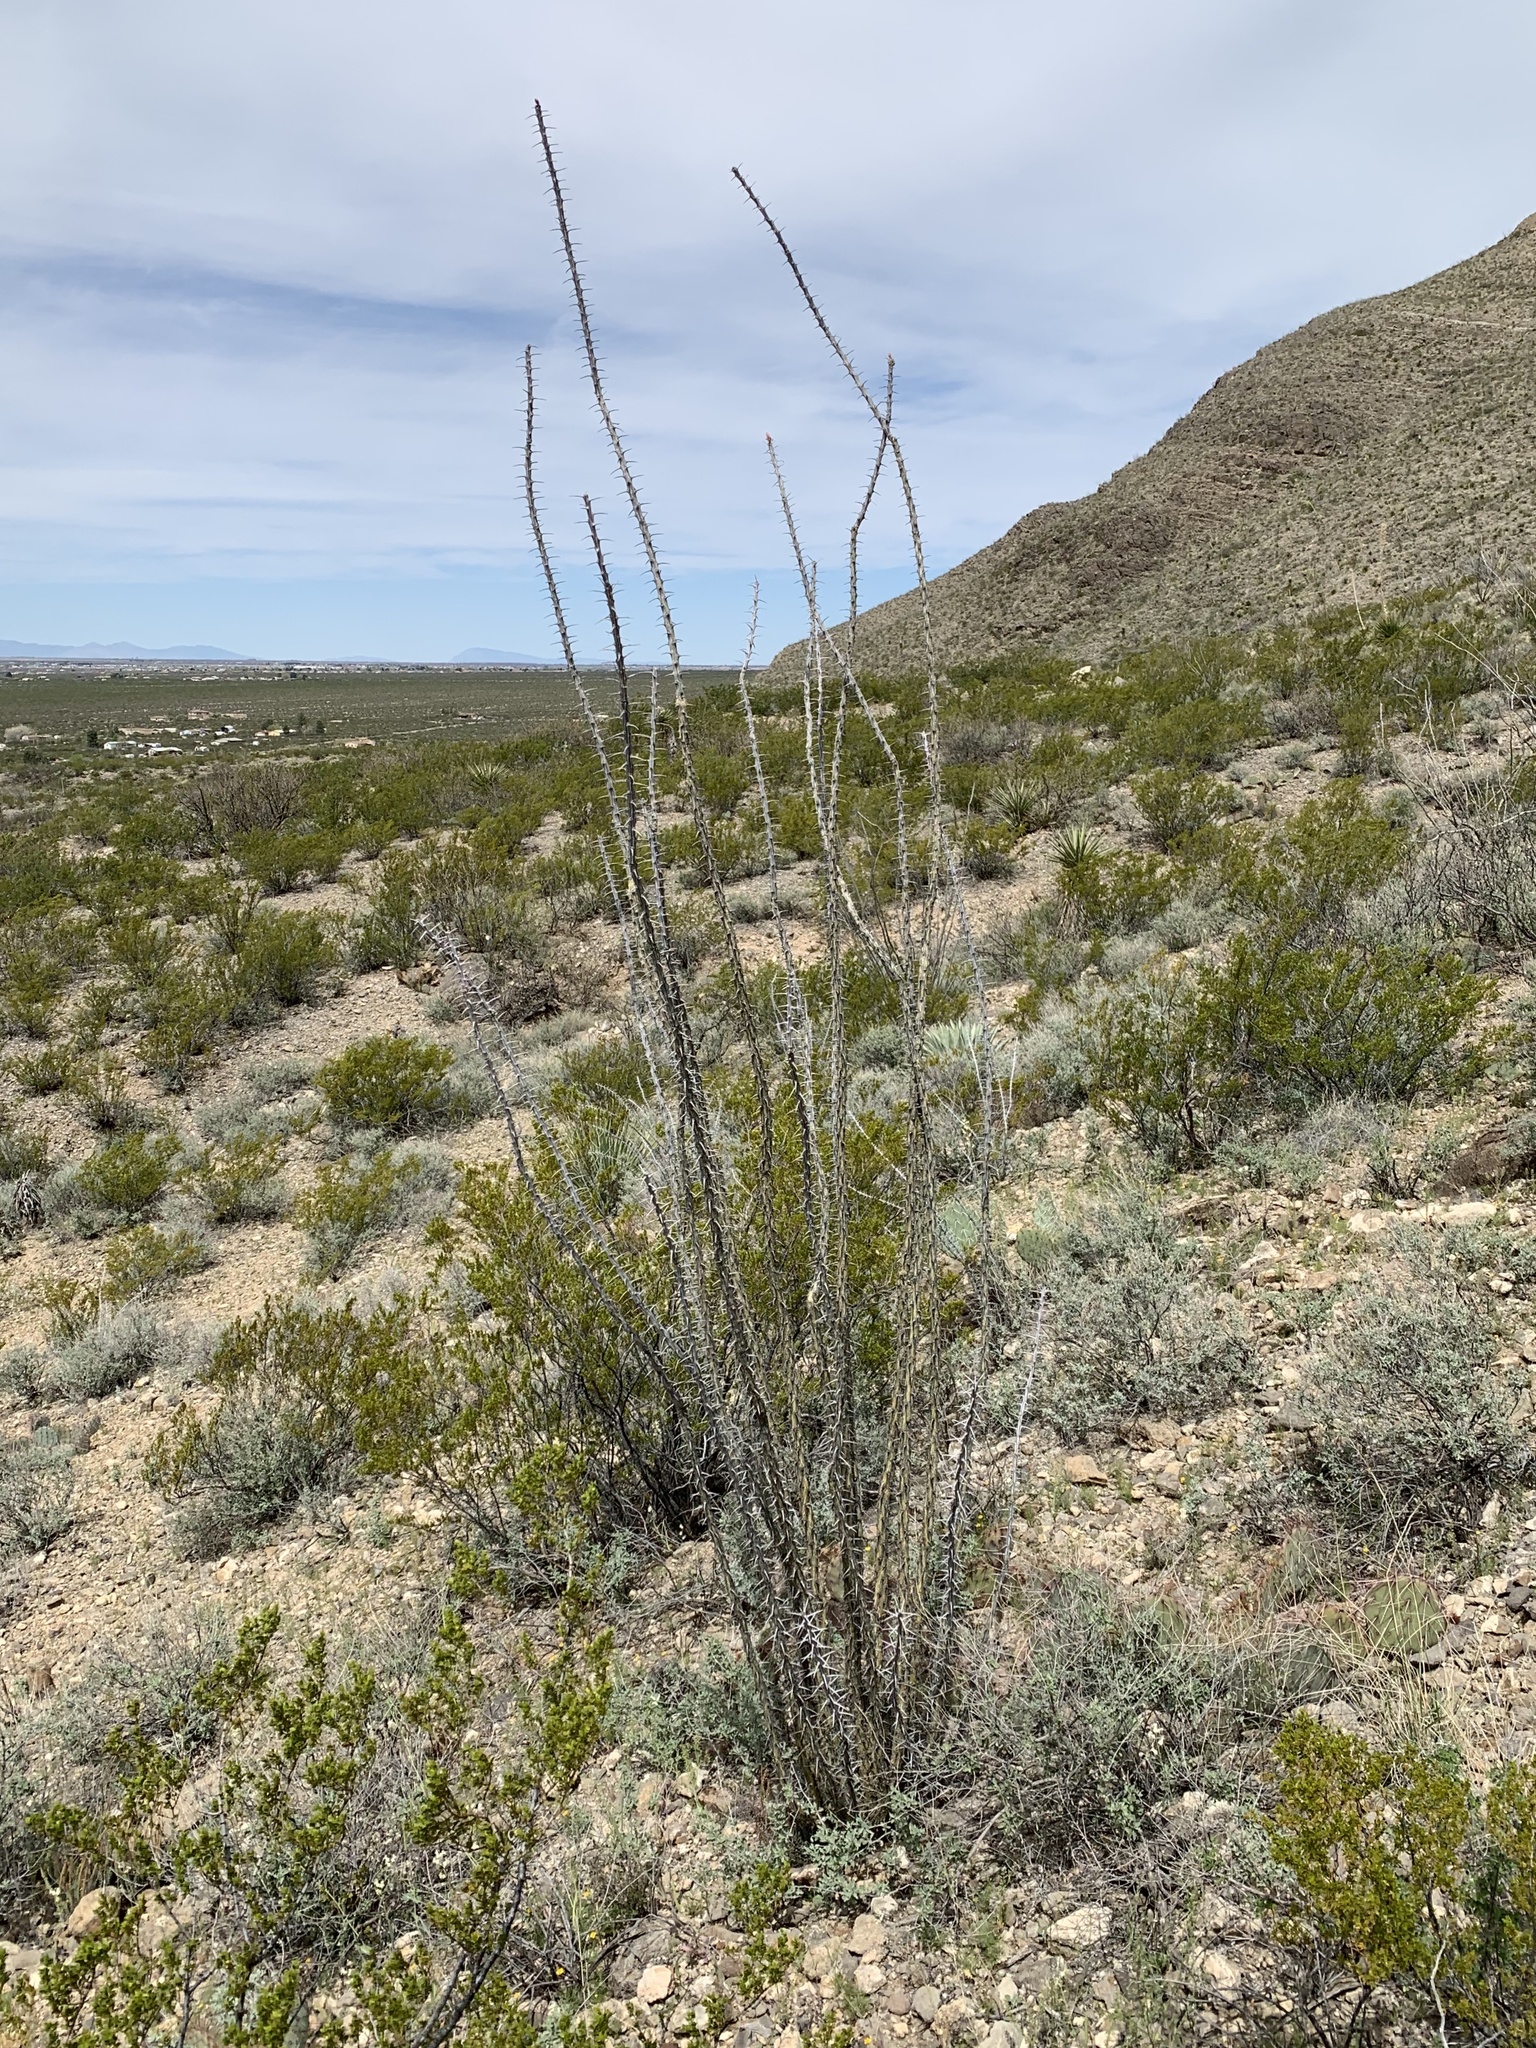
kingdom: Plantae
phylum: Tracheophyta
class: Magnoliopsida
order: Ericales
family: Fouquieriaceae
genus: Fouquieria
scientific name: Fouquieria splendens
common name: Vine-cactus
